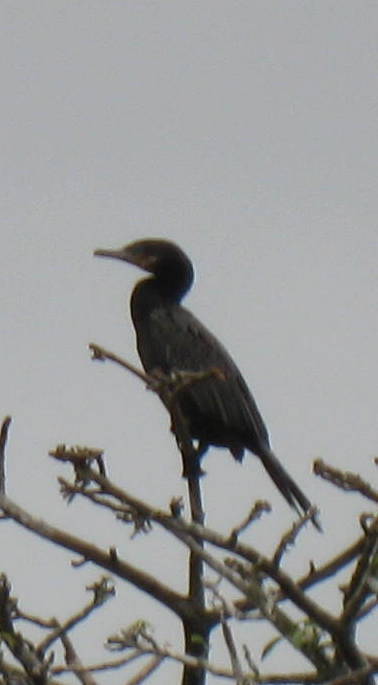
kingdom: Animalia
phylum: Chordata
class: Aves
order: Suliformes
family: Phalacrocoracidae
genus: Phalacrocorax
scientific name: Phalacrocorax brasilianus
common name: Neotropic cormorant
